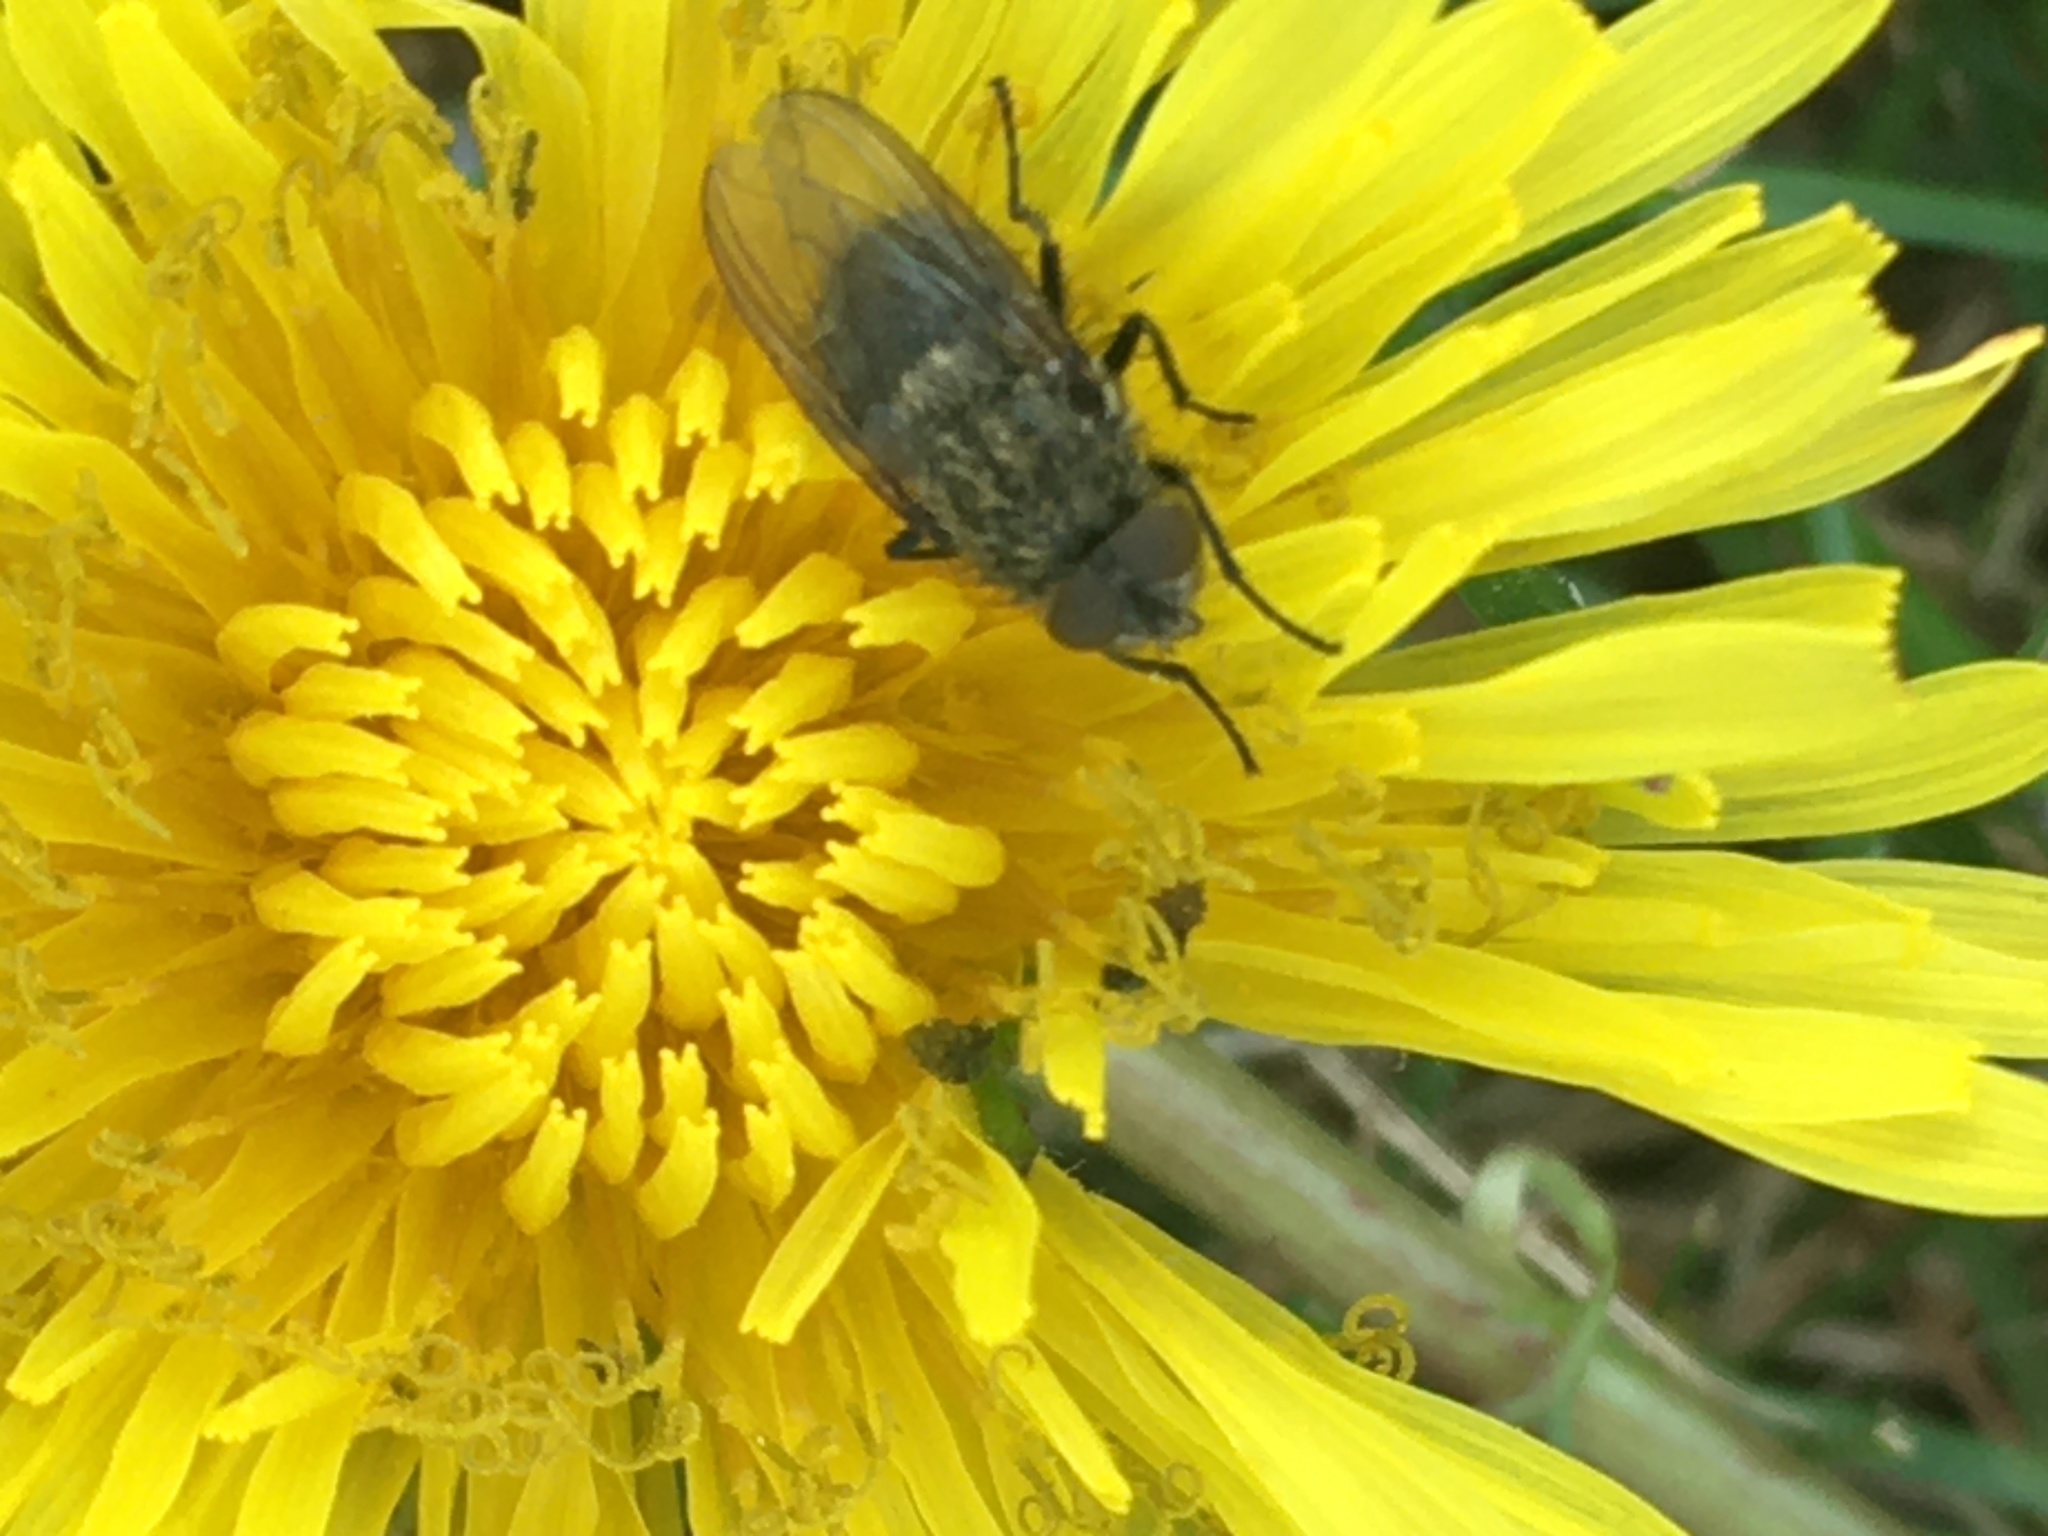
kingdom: Animalia
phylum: Arthropoda
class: Insecta
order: Diptera
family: Polleniidae
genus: Pollenia
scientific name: Pollenia
